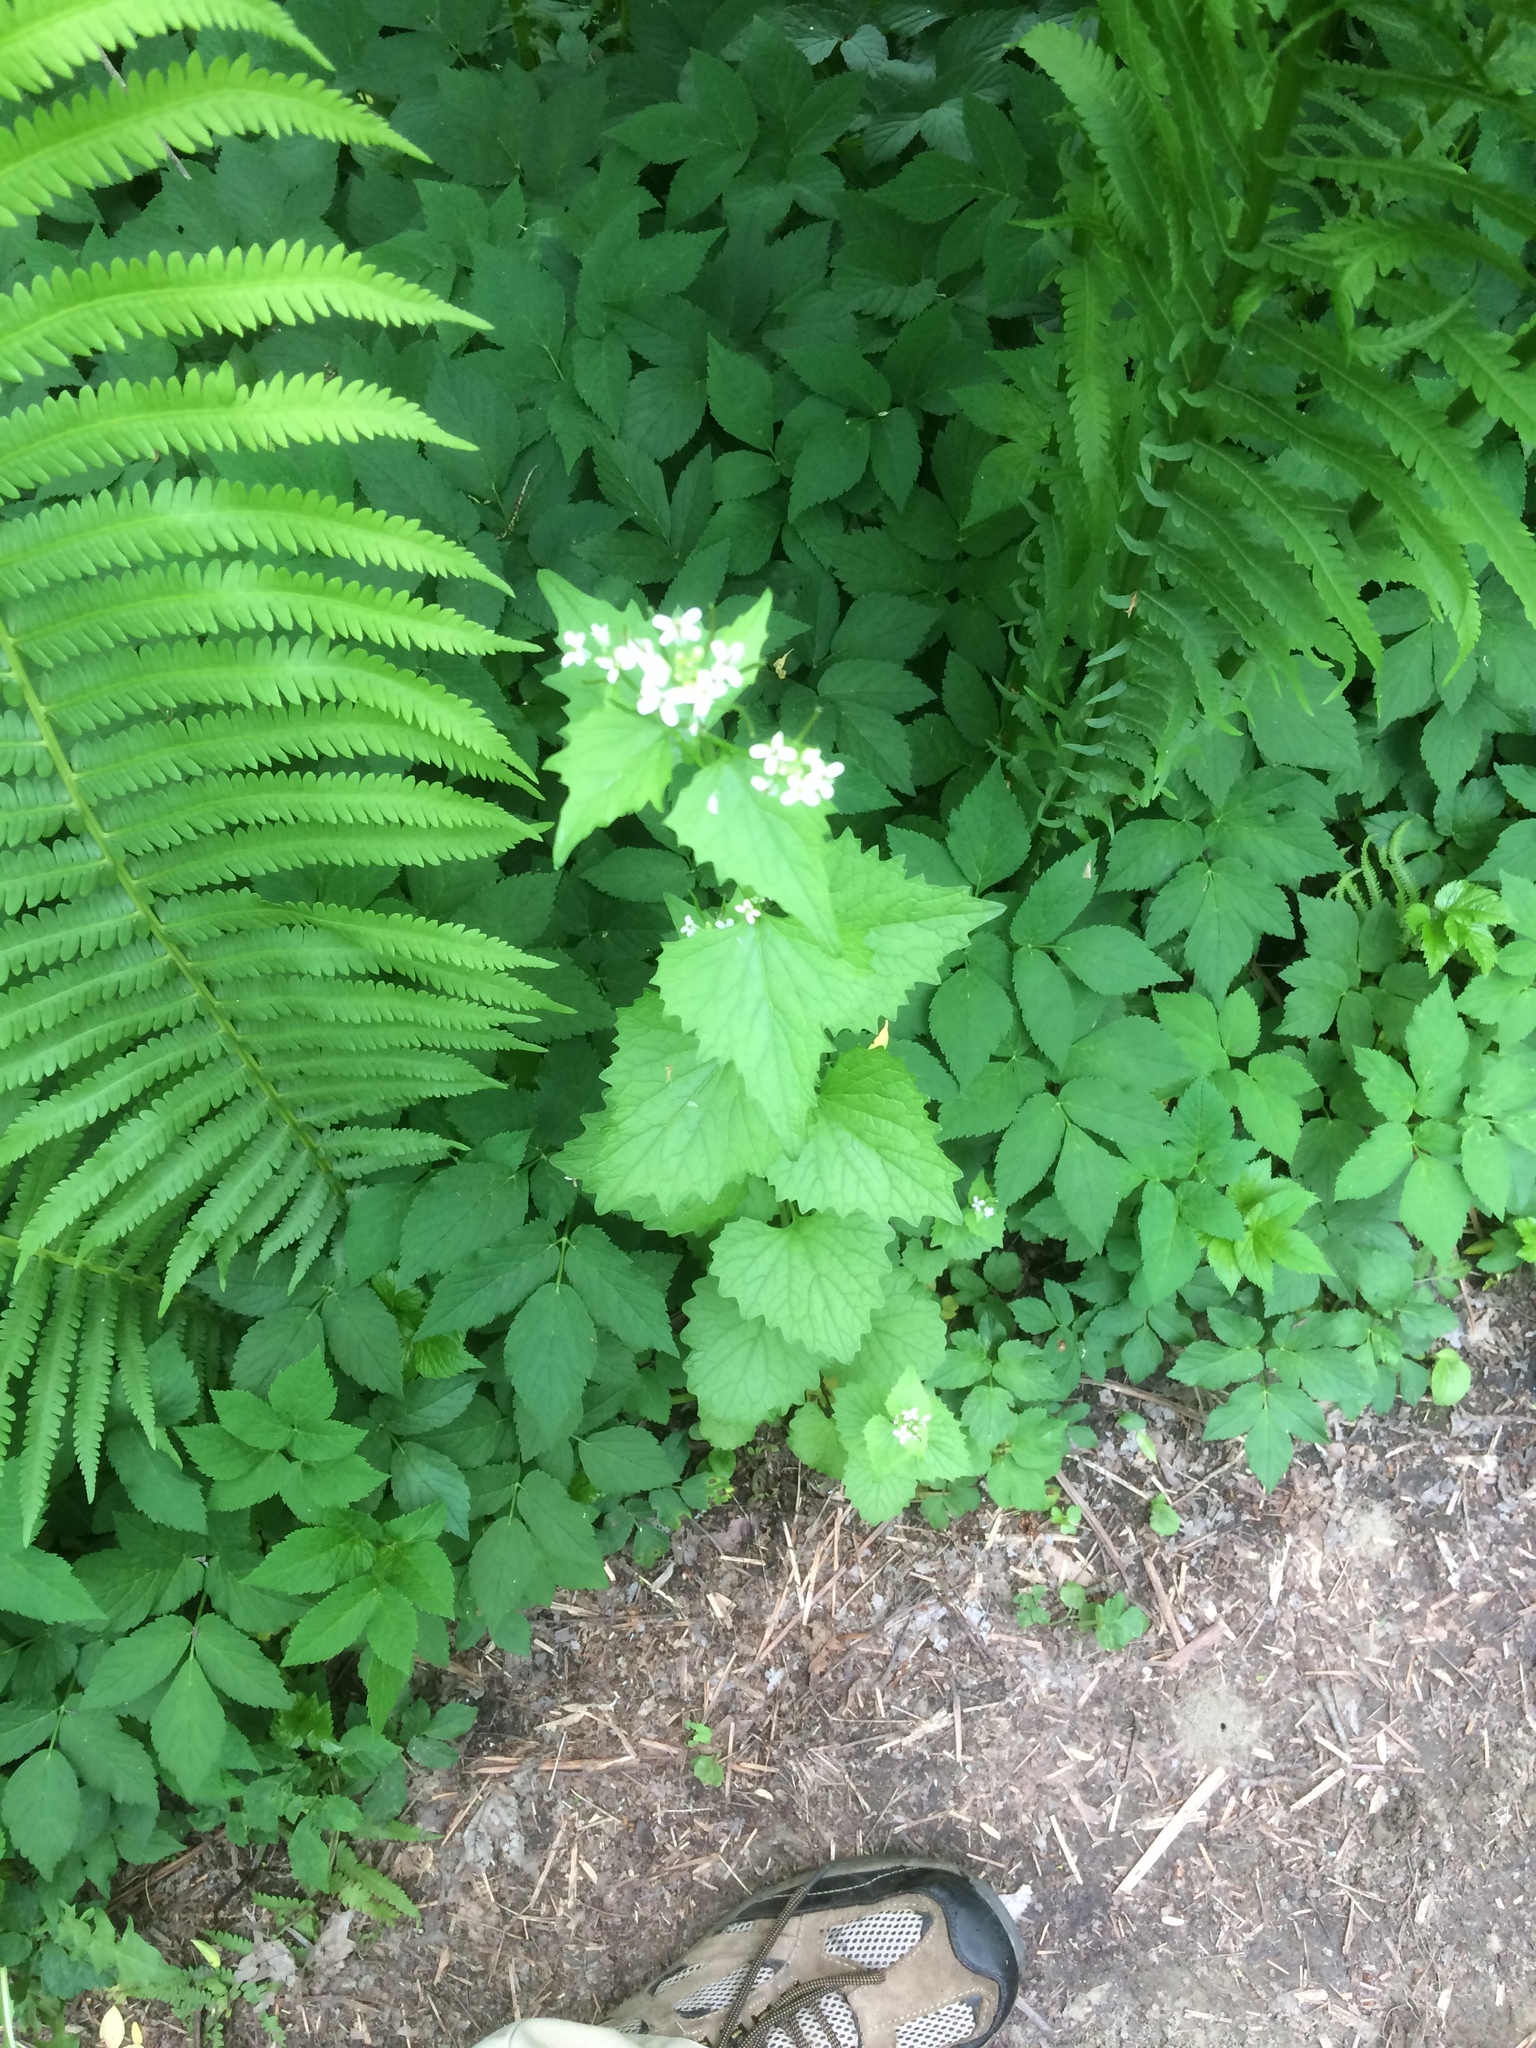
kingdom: Plantae
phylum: Tracheophyta
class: Magnoliopsida
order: Brassicales
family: Brassicaceae
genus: Alliaria
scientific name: Alliaria petiolata
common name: Garlic mustard
